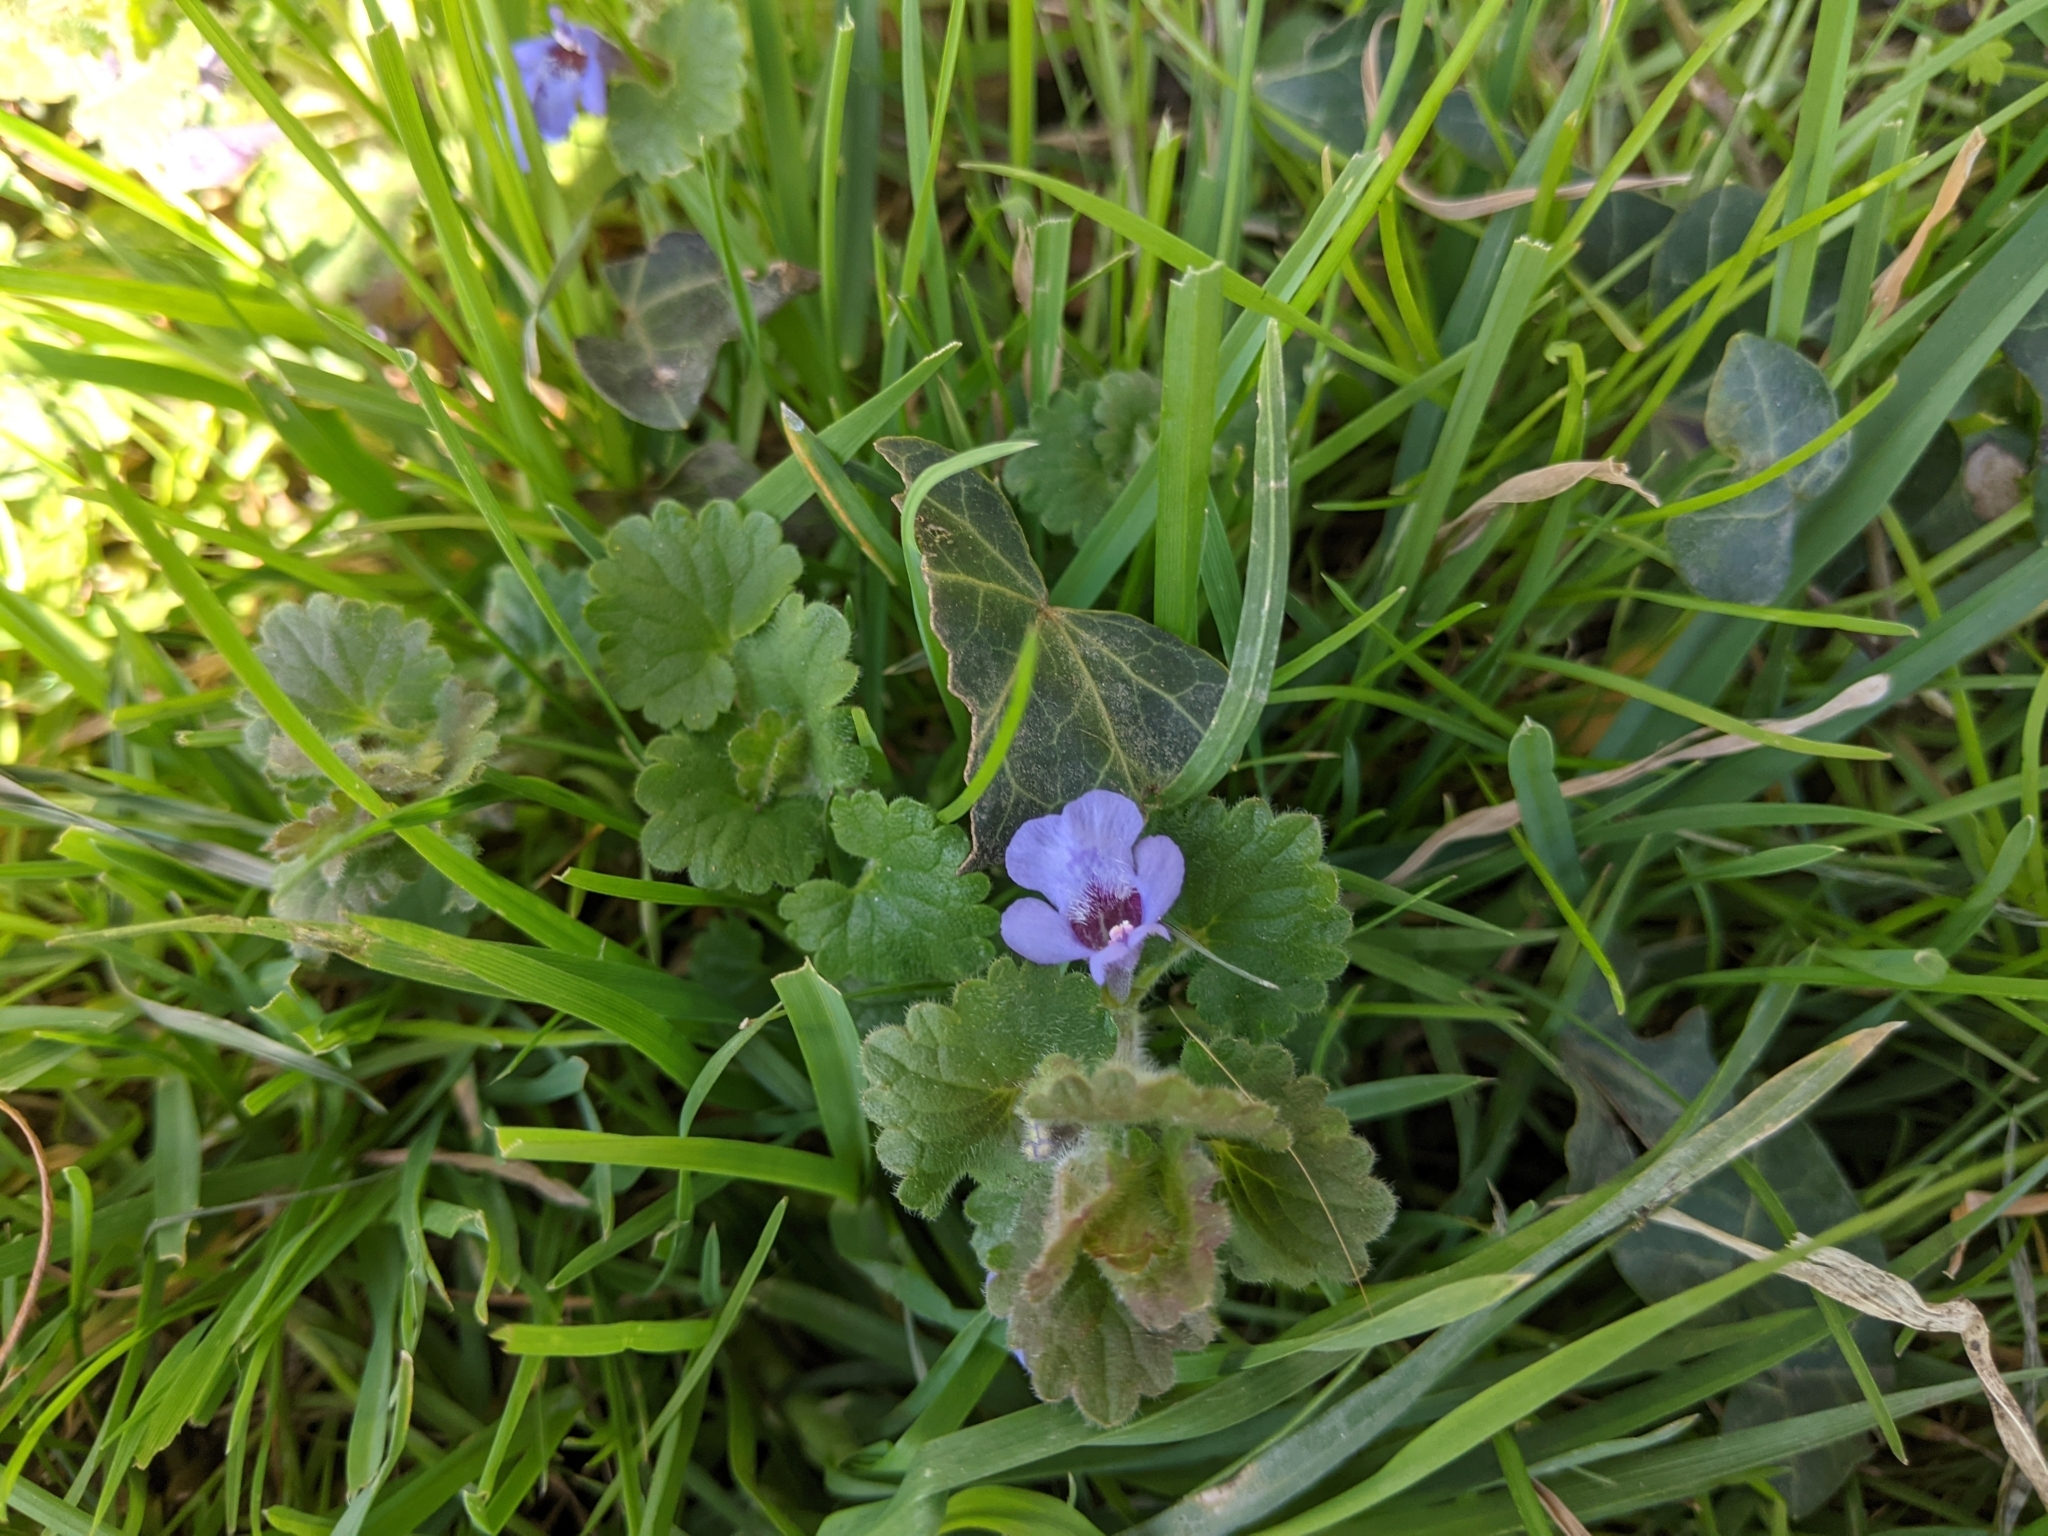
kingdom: Plantae
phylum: Tracheophyta
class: Magnoliopsida
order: Lamiales
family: Lamiaceae
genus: Glechoma
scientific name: Glechoma hederacea
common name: Ground ivy
